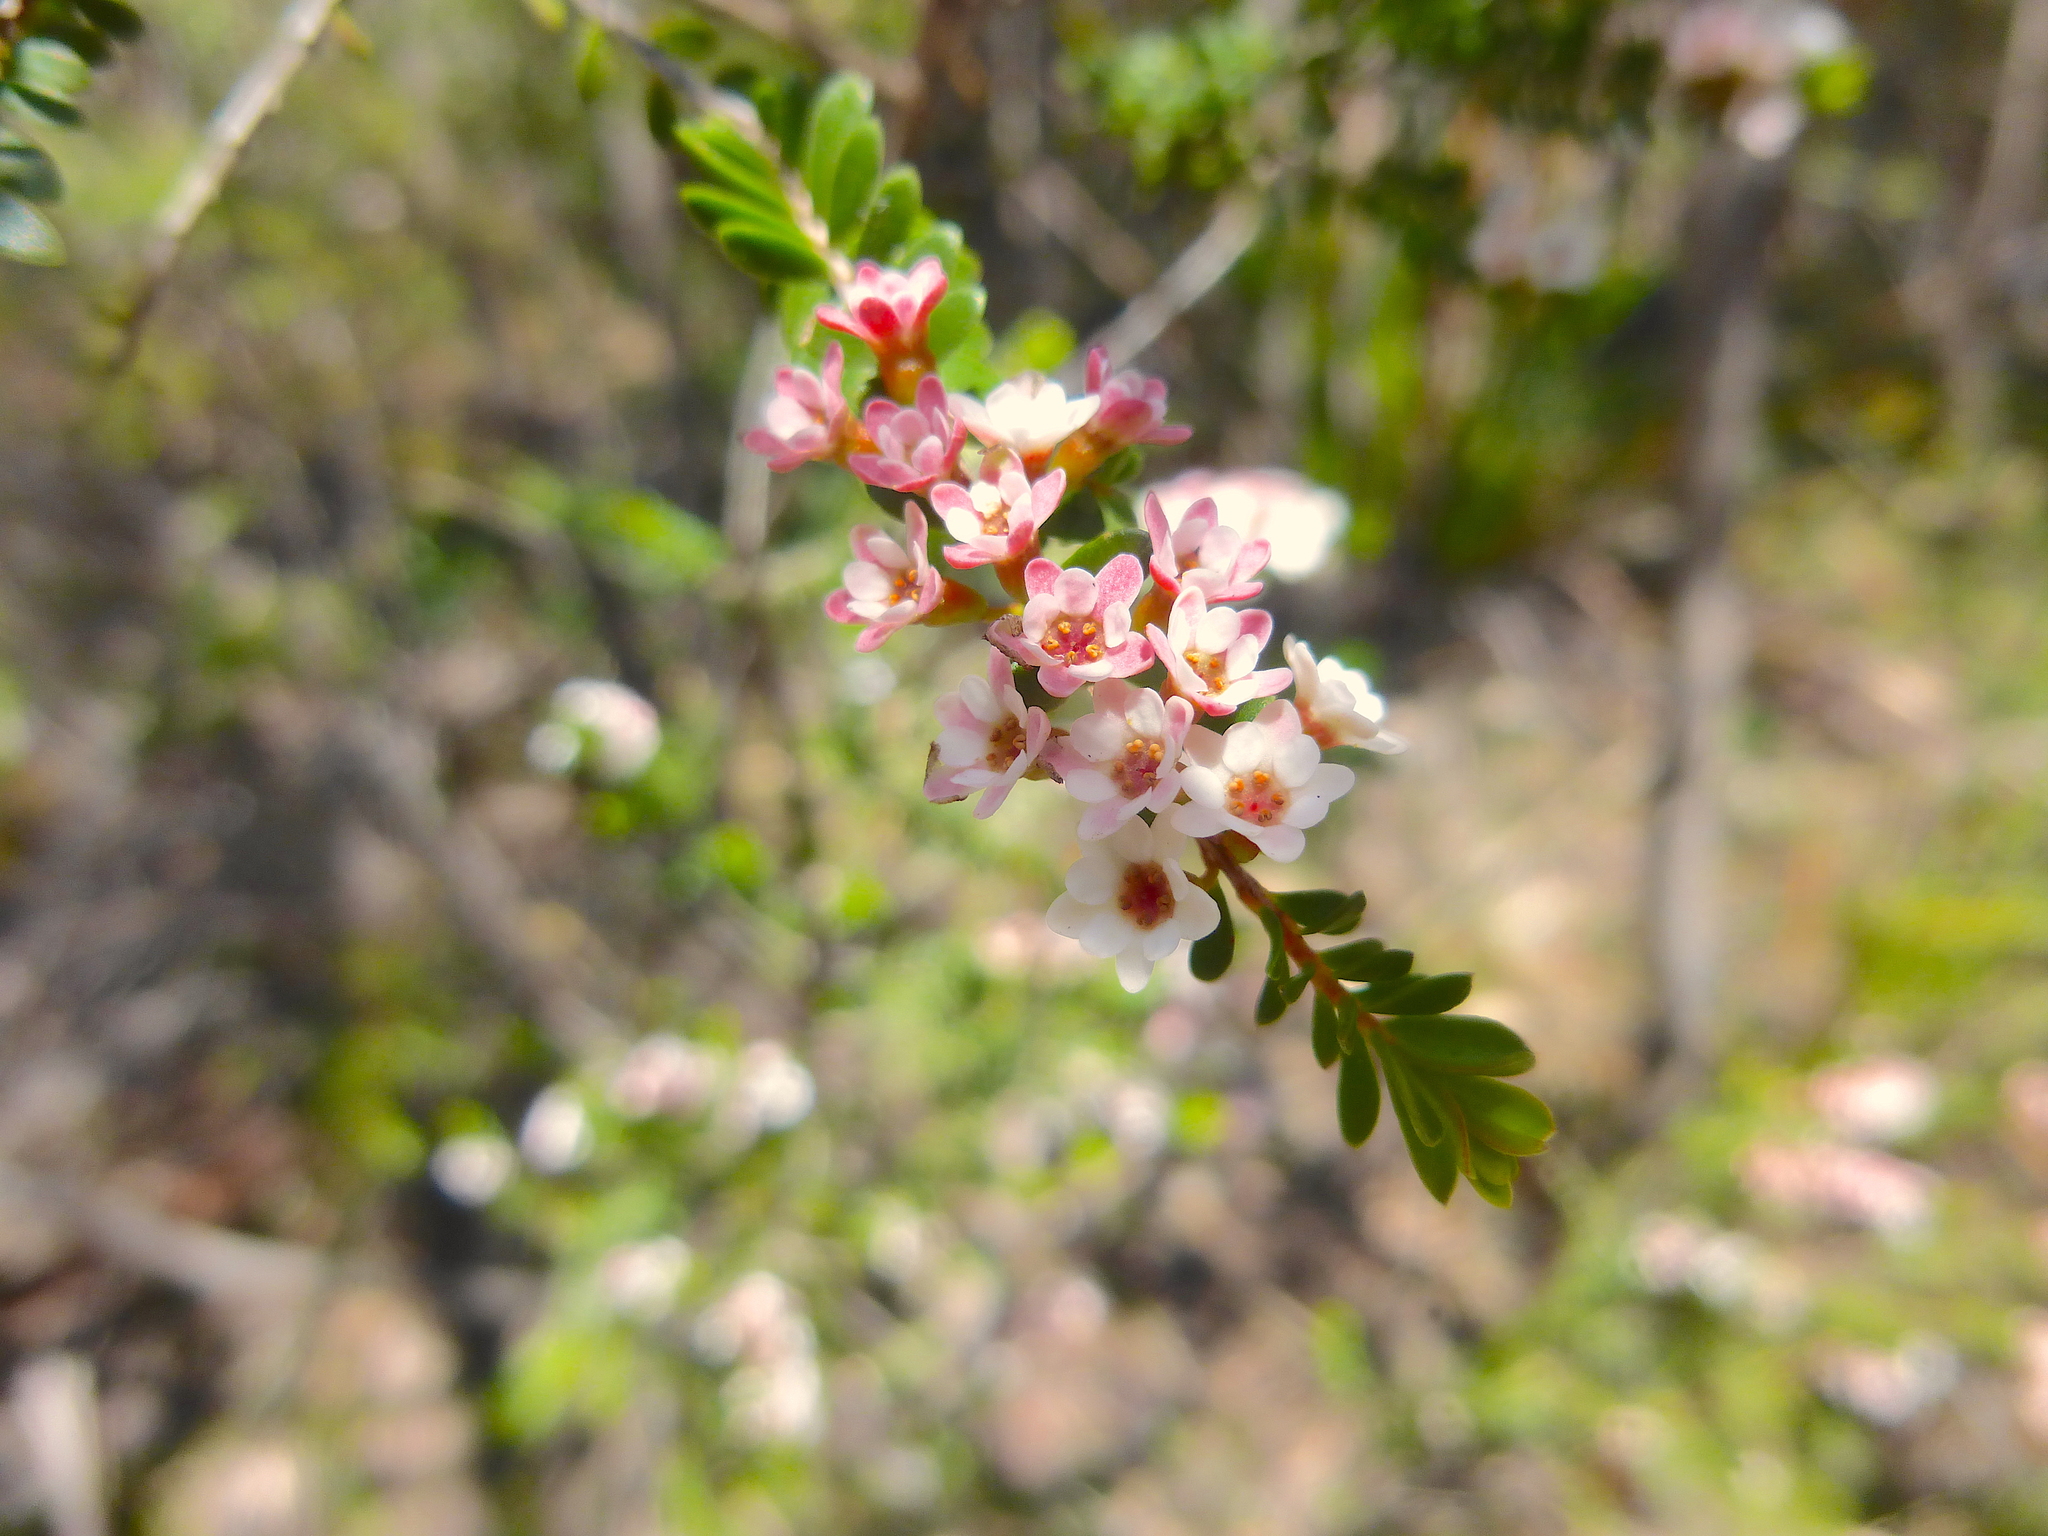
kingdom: Plantae
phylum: Tracheophyta
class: Magnoliopsida
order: Myrtales
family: Myrtaceae
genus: Thryptomene
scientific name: Thryptomene calycina
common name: Grampians thryptomene
